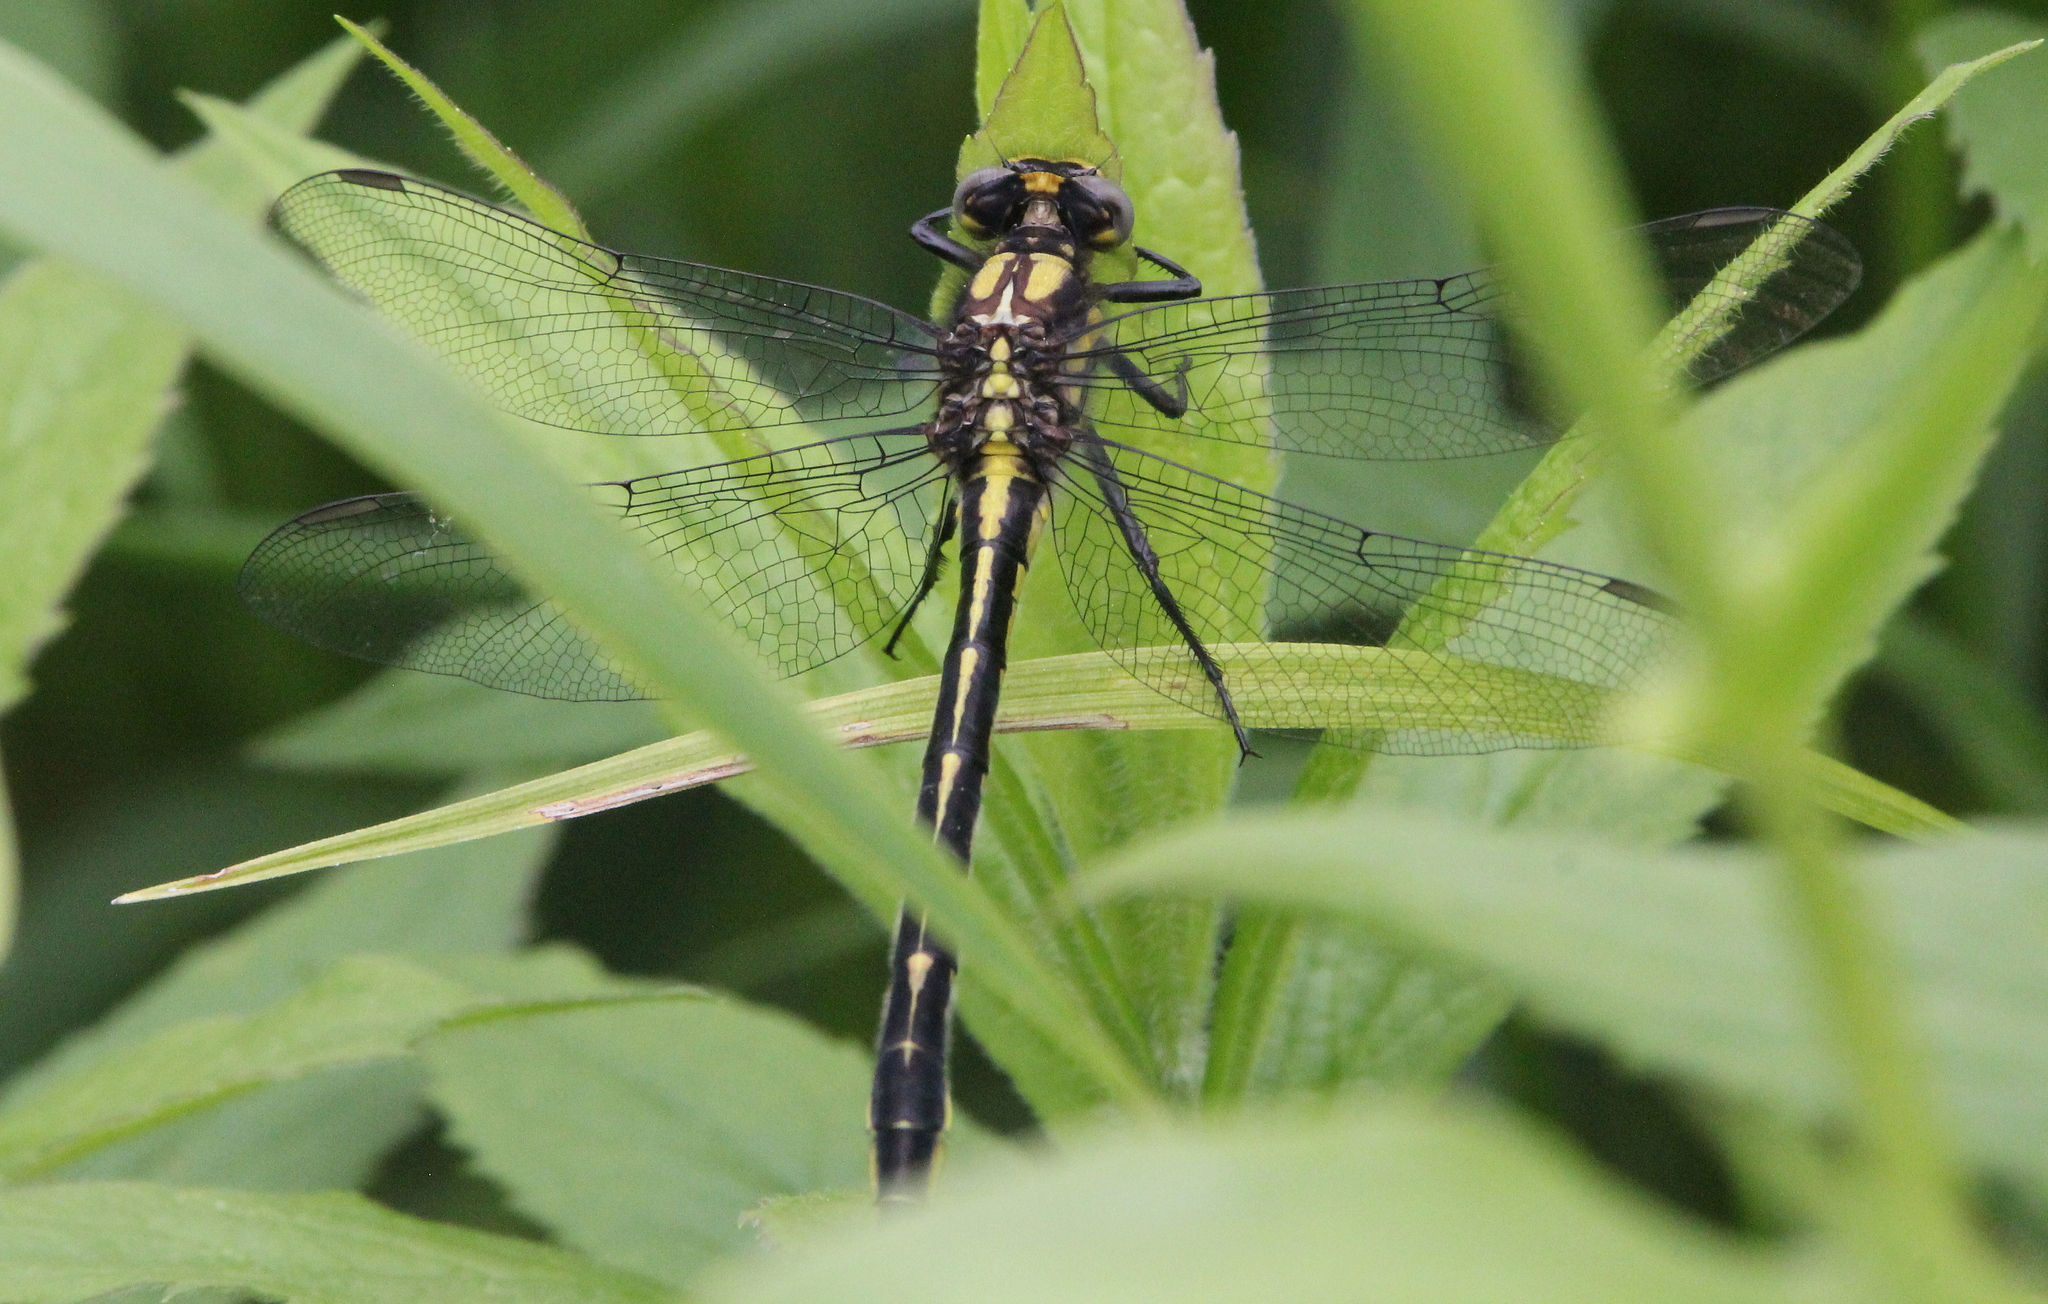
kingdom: Animalia
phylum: Arthropoda
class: Insecta
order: Odonata
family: Gomphidae
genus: Phanogomphus
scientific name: Phanogomphus borealis
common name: Beaverpond clubtail
